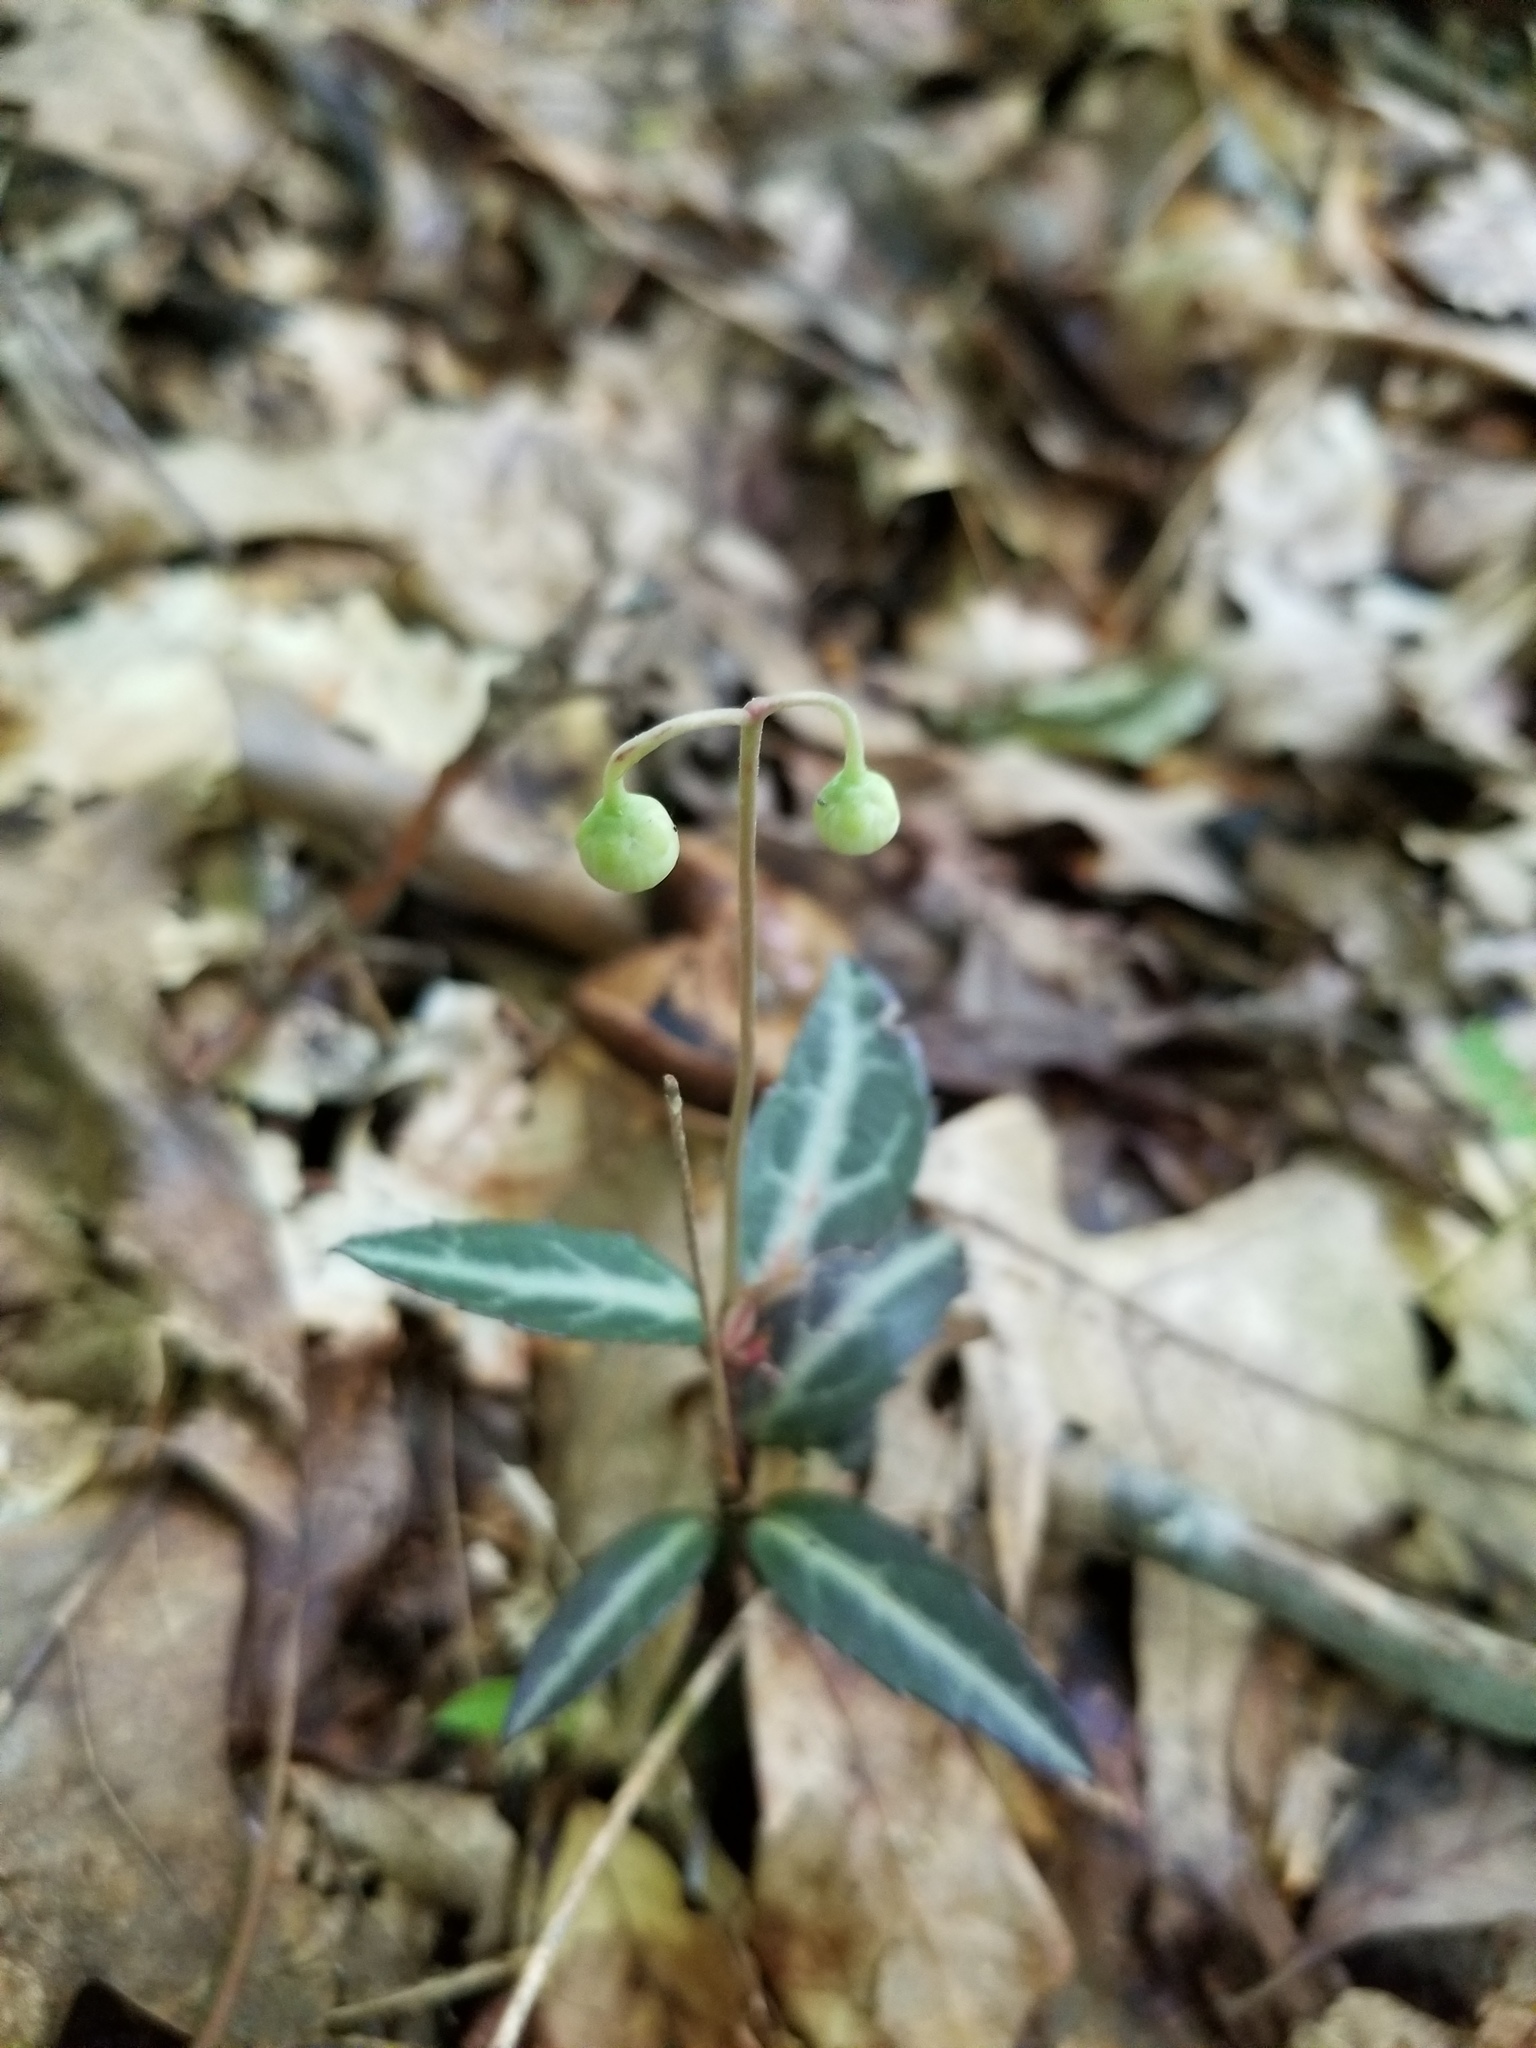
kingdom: Plantae
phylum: Tracheophyta
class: Magnoliopsida
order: Ericales
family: Ericaceae
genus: Chimaphila
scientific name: Chimaphila maculata
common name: Spotted pipsissewa
